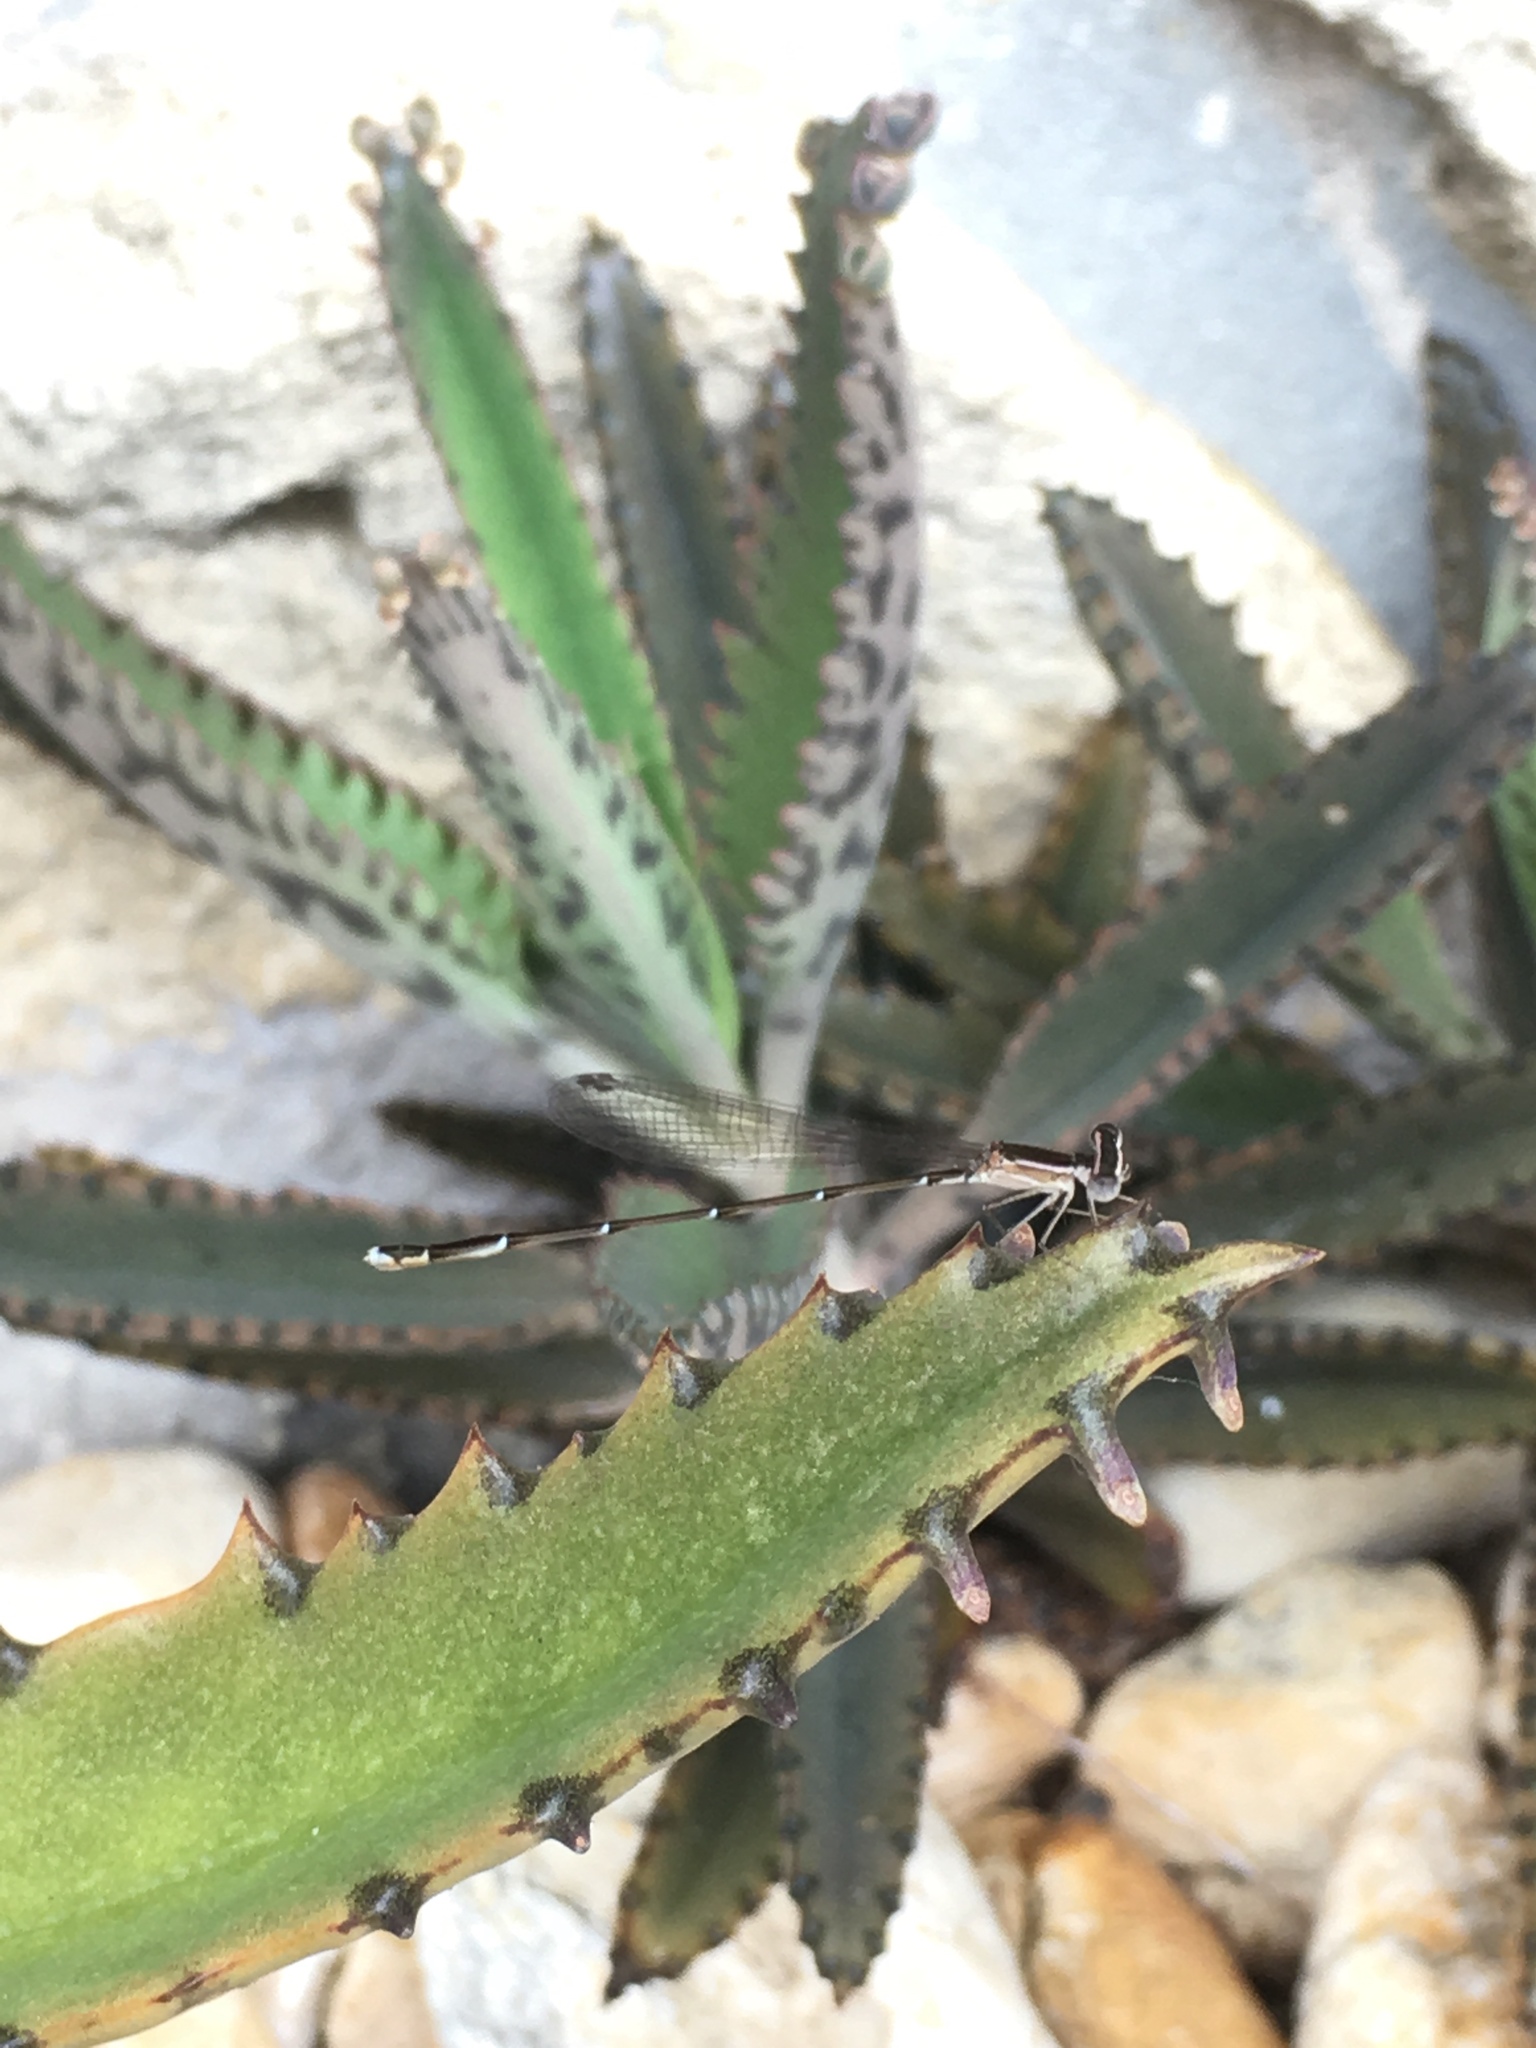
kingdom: Animalia
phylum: Arthropoda
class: Insecta
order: Odonata
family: Coenagrionidae
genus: Nehalennia
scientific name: Nehalennia pallidula
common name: Everglades sprite
